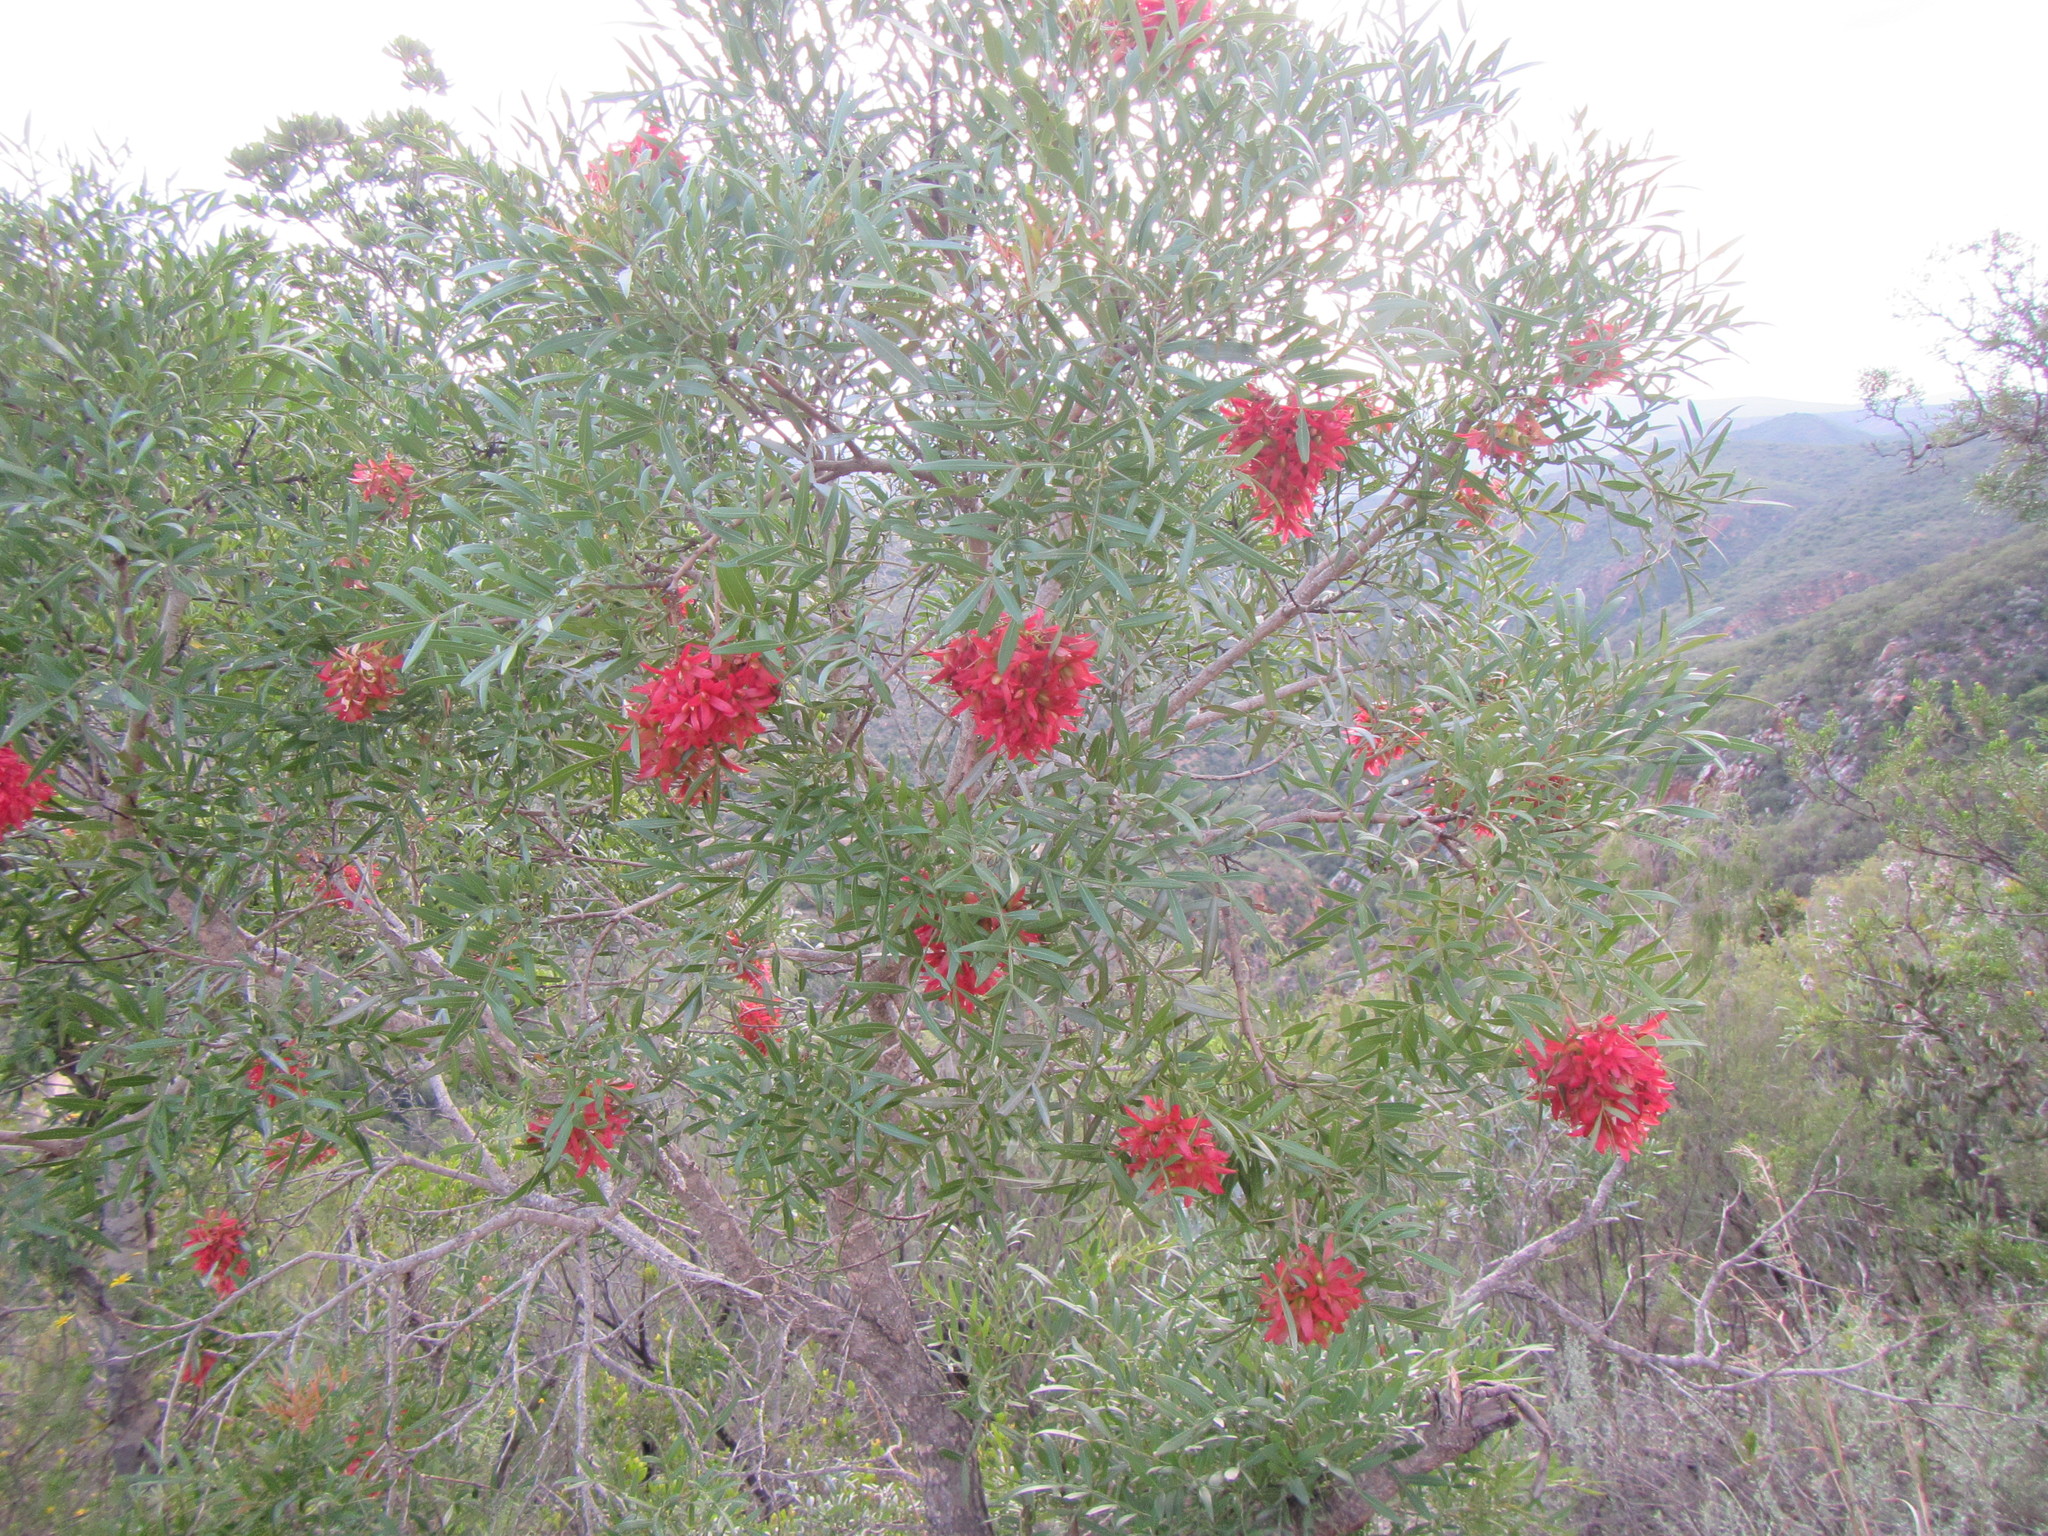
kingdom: Plantae
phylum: Tracheophyta
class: Magnoliopsida
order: Sapindales
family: Anacardiaceae
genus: Loxostylis
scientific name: Loxostylis alata
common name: Wild peppertree
